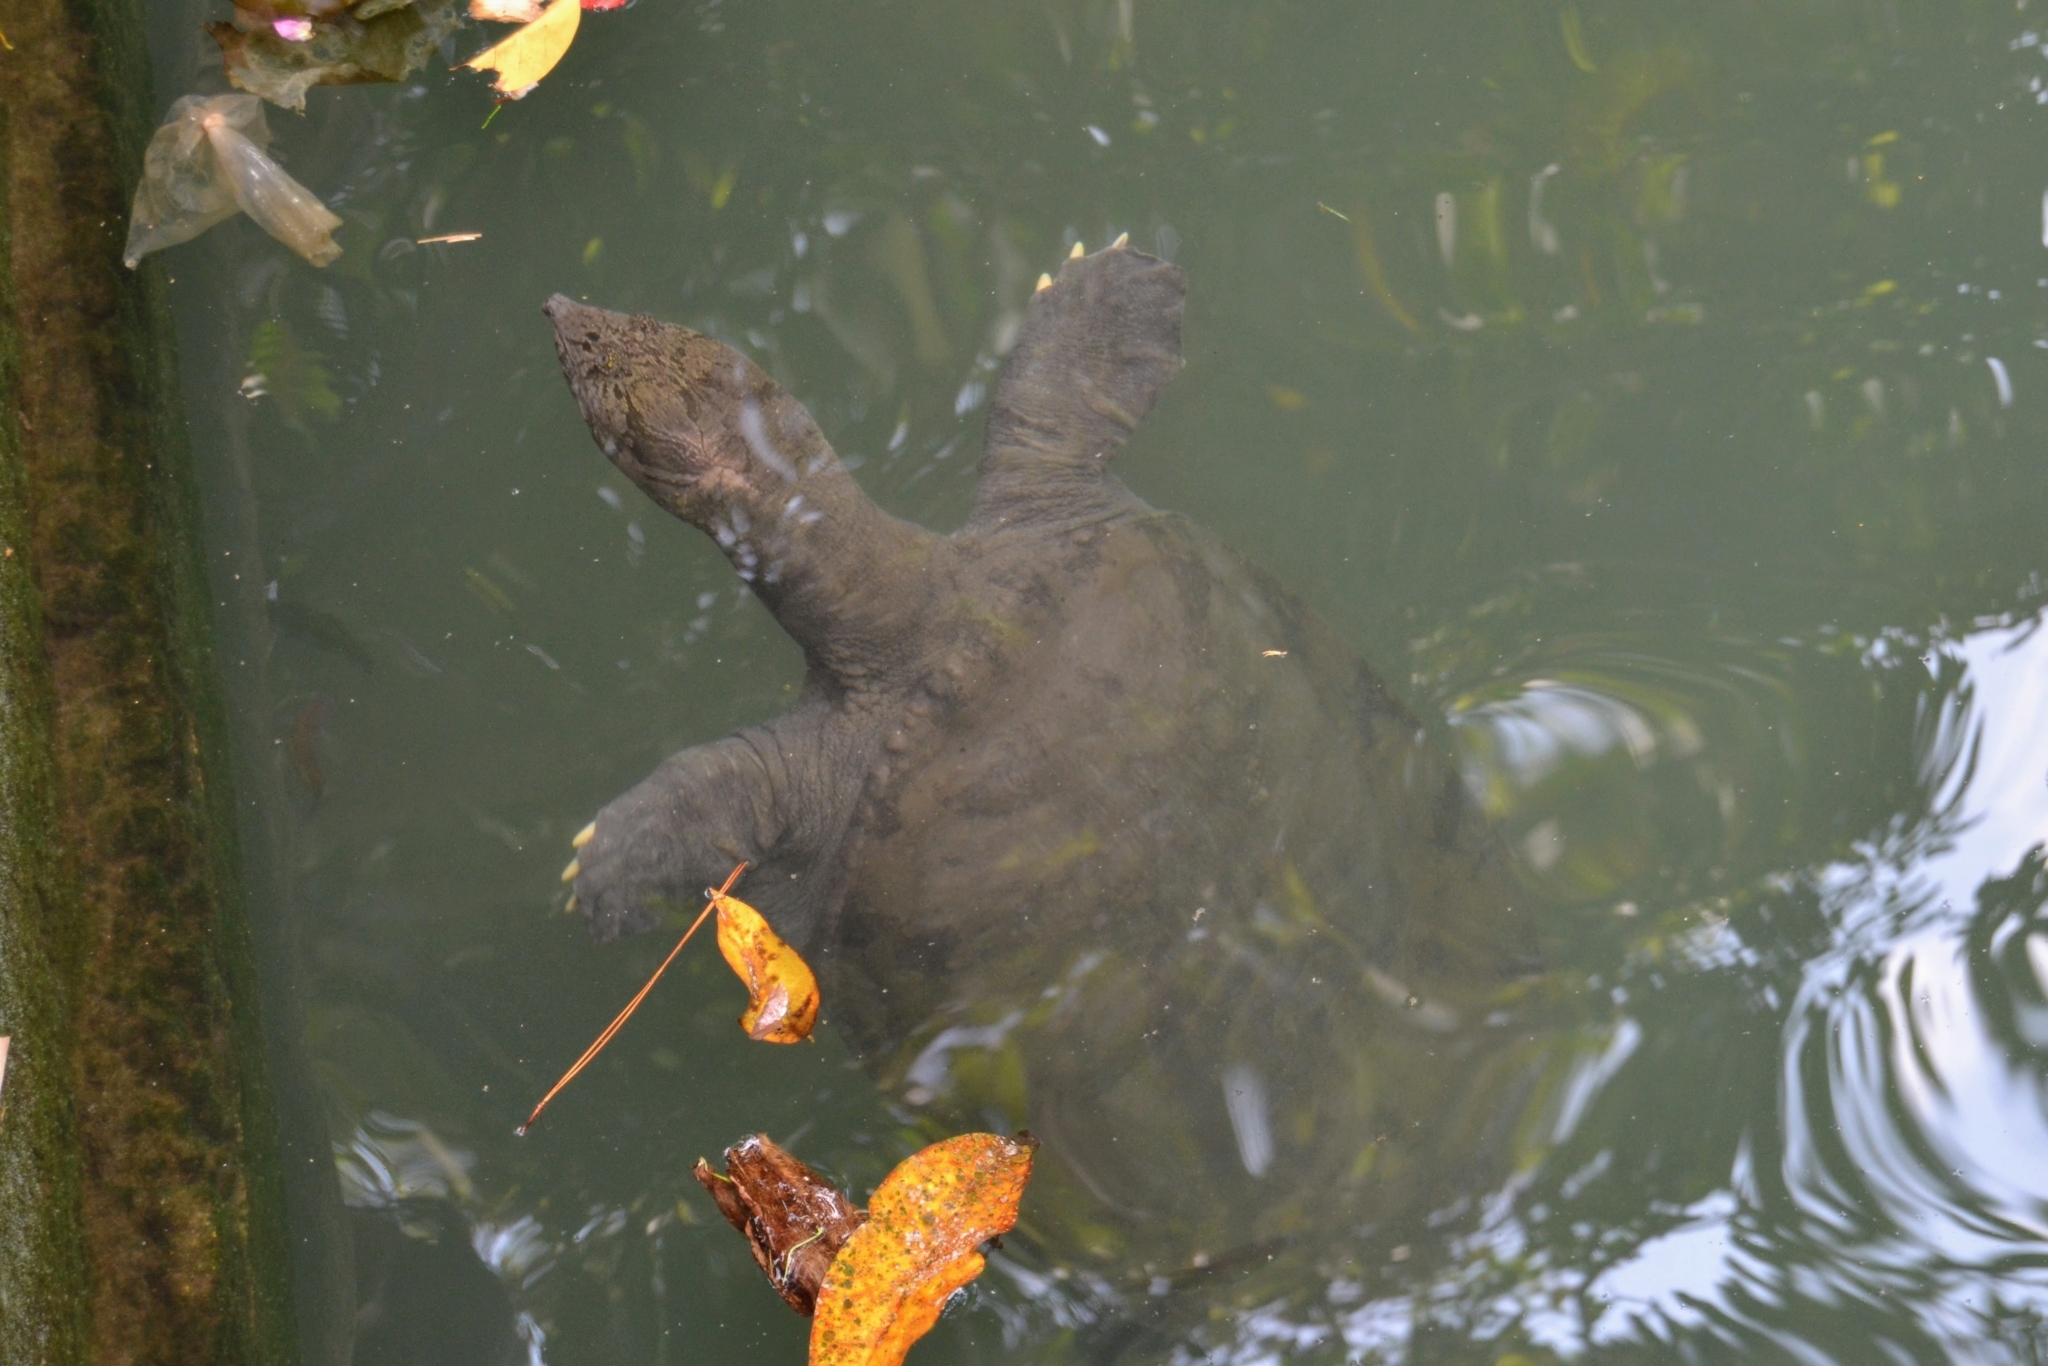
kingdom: Animalia
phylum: Chordata
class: Testudines
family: Trionychidae
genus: Amyda
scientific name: Amyda cartilaginea
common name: Asiatic softshell turtle
